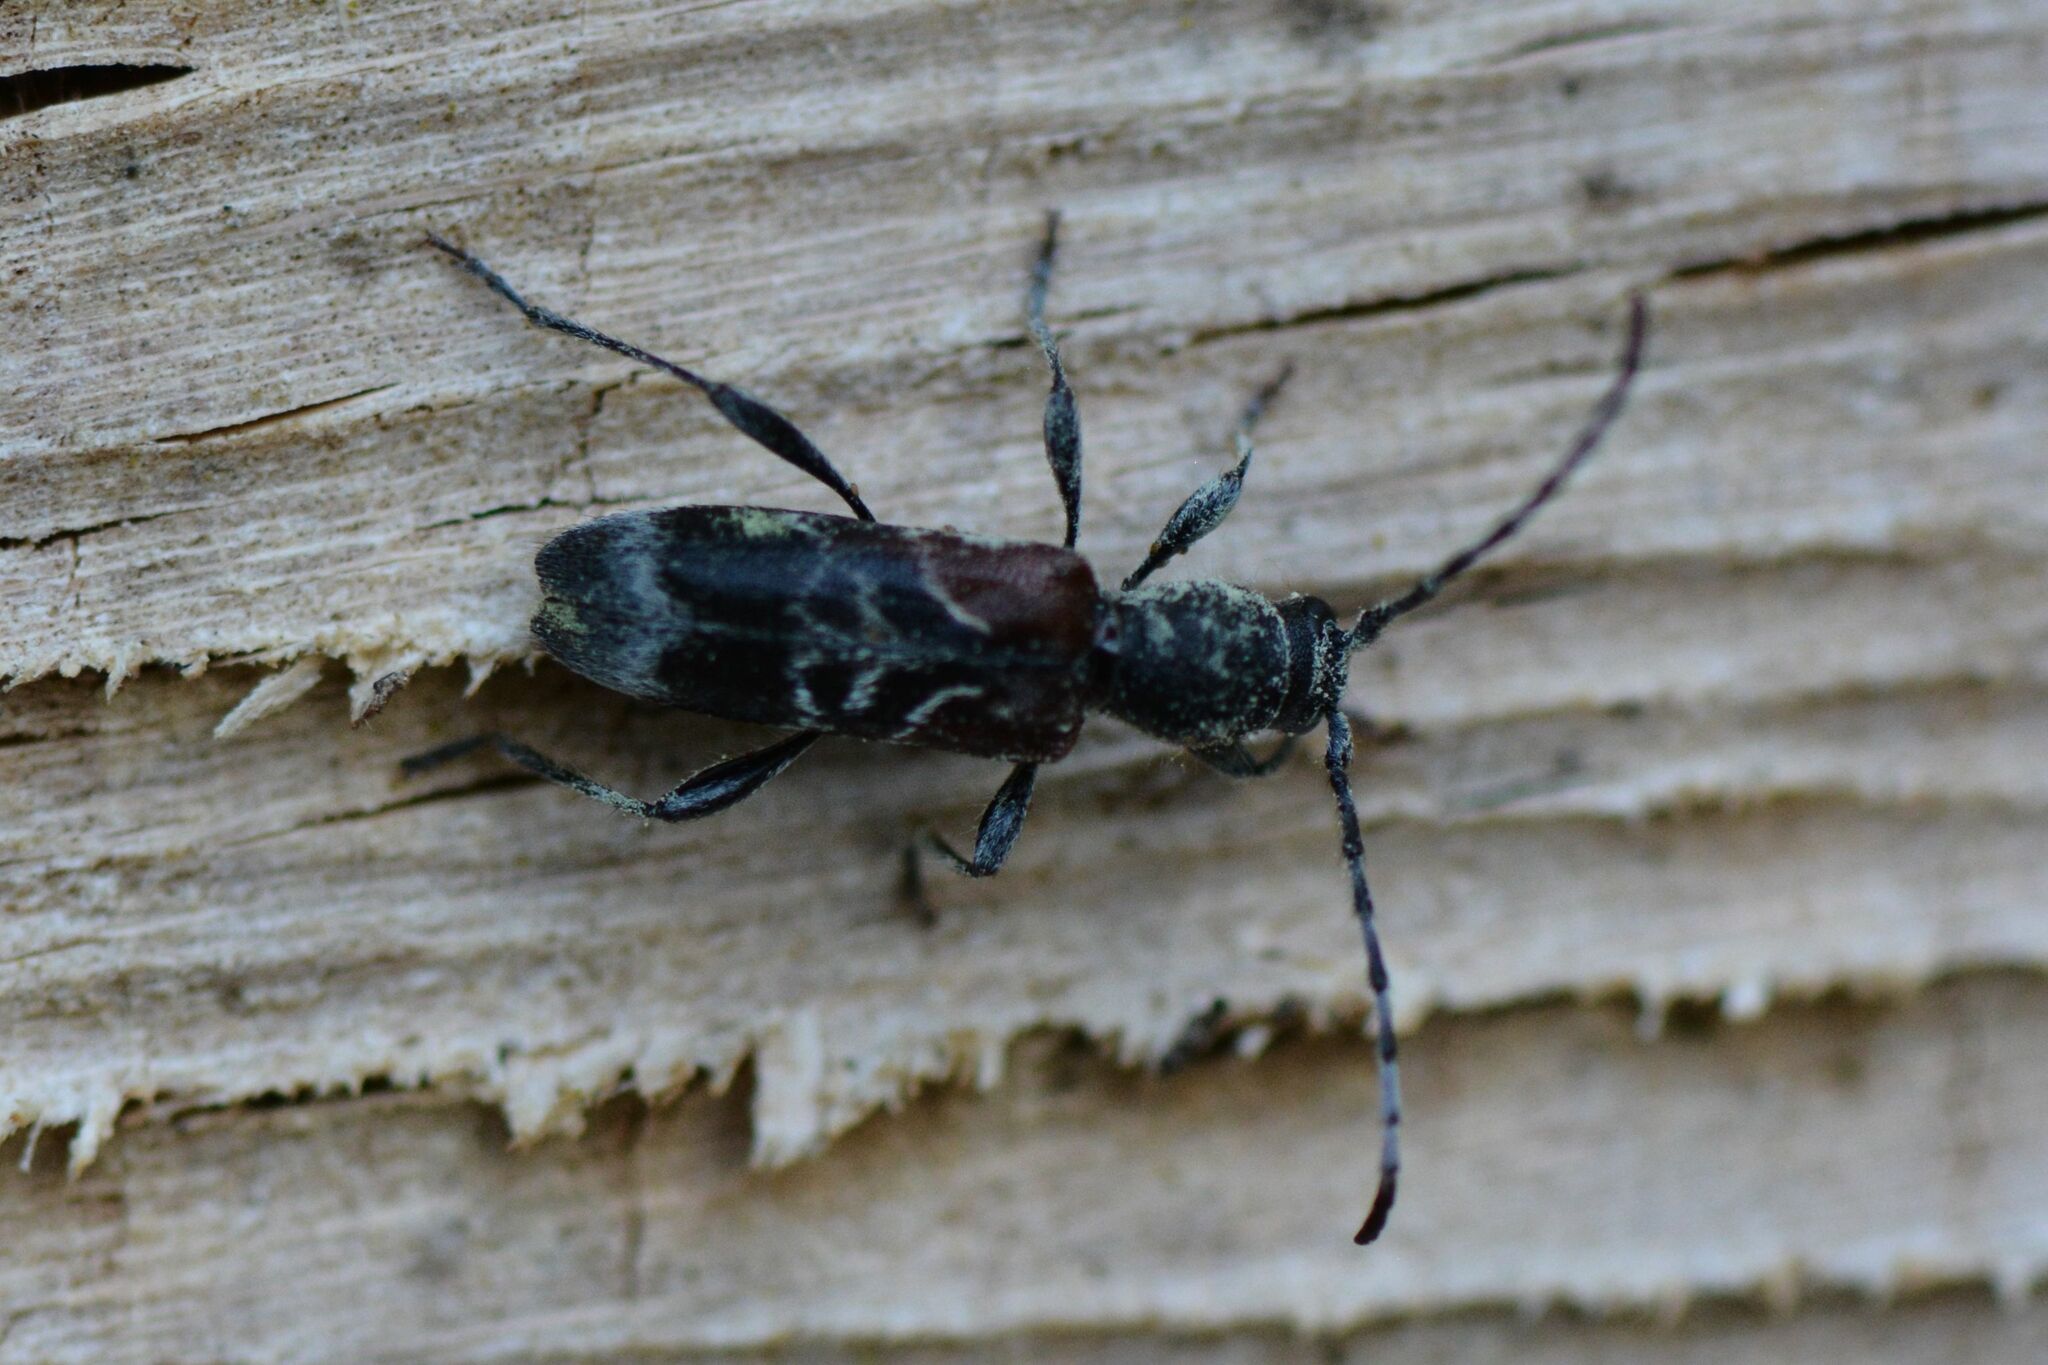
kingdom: Animalia
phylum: Arthropoda
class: Insecta
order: Coleoptera
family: Cerambycidae
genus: Anaglyptus
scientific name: Anaglyptus mysticus
